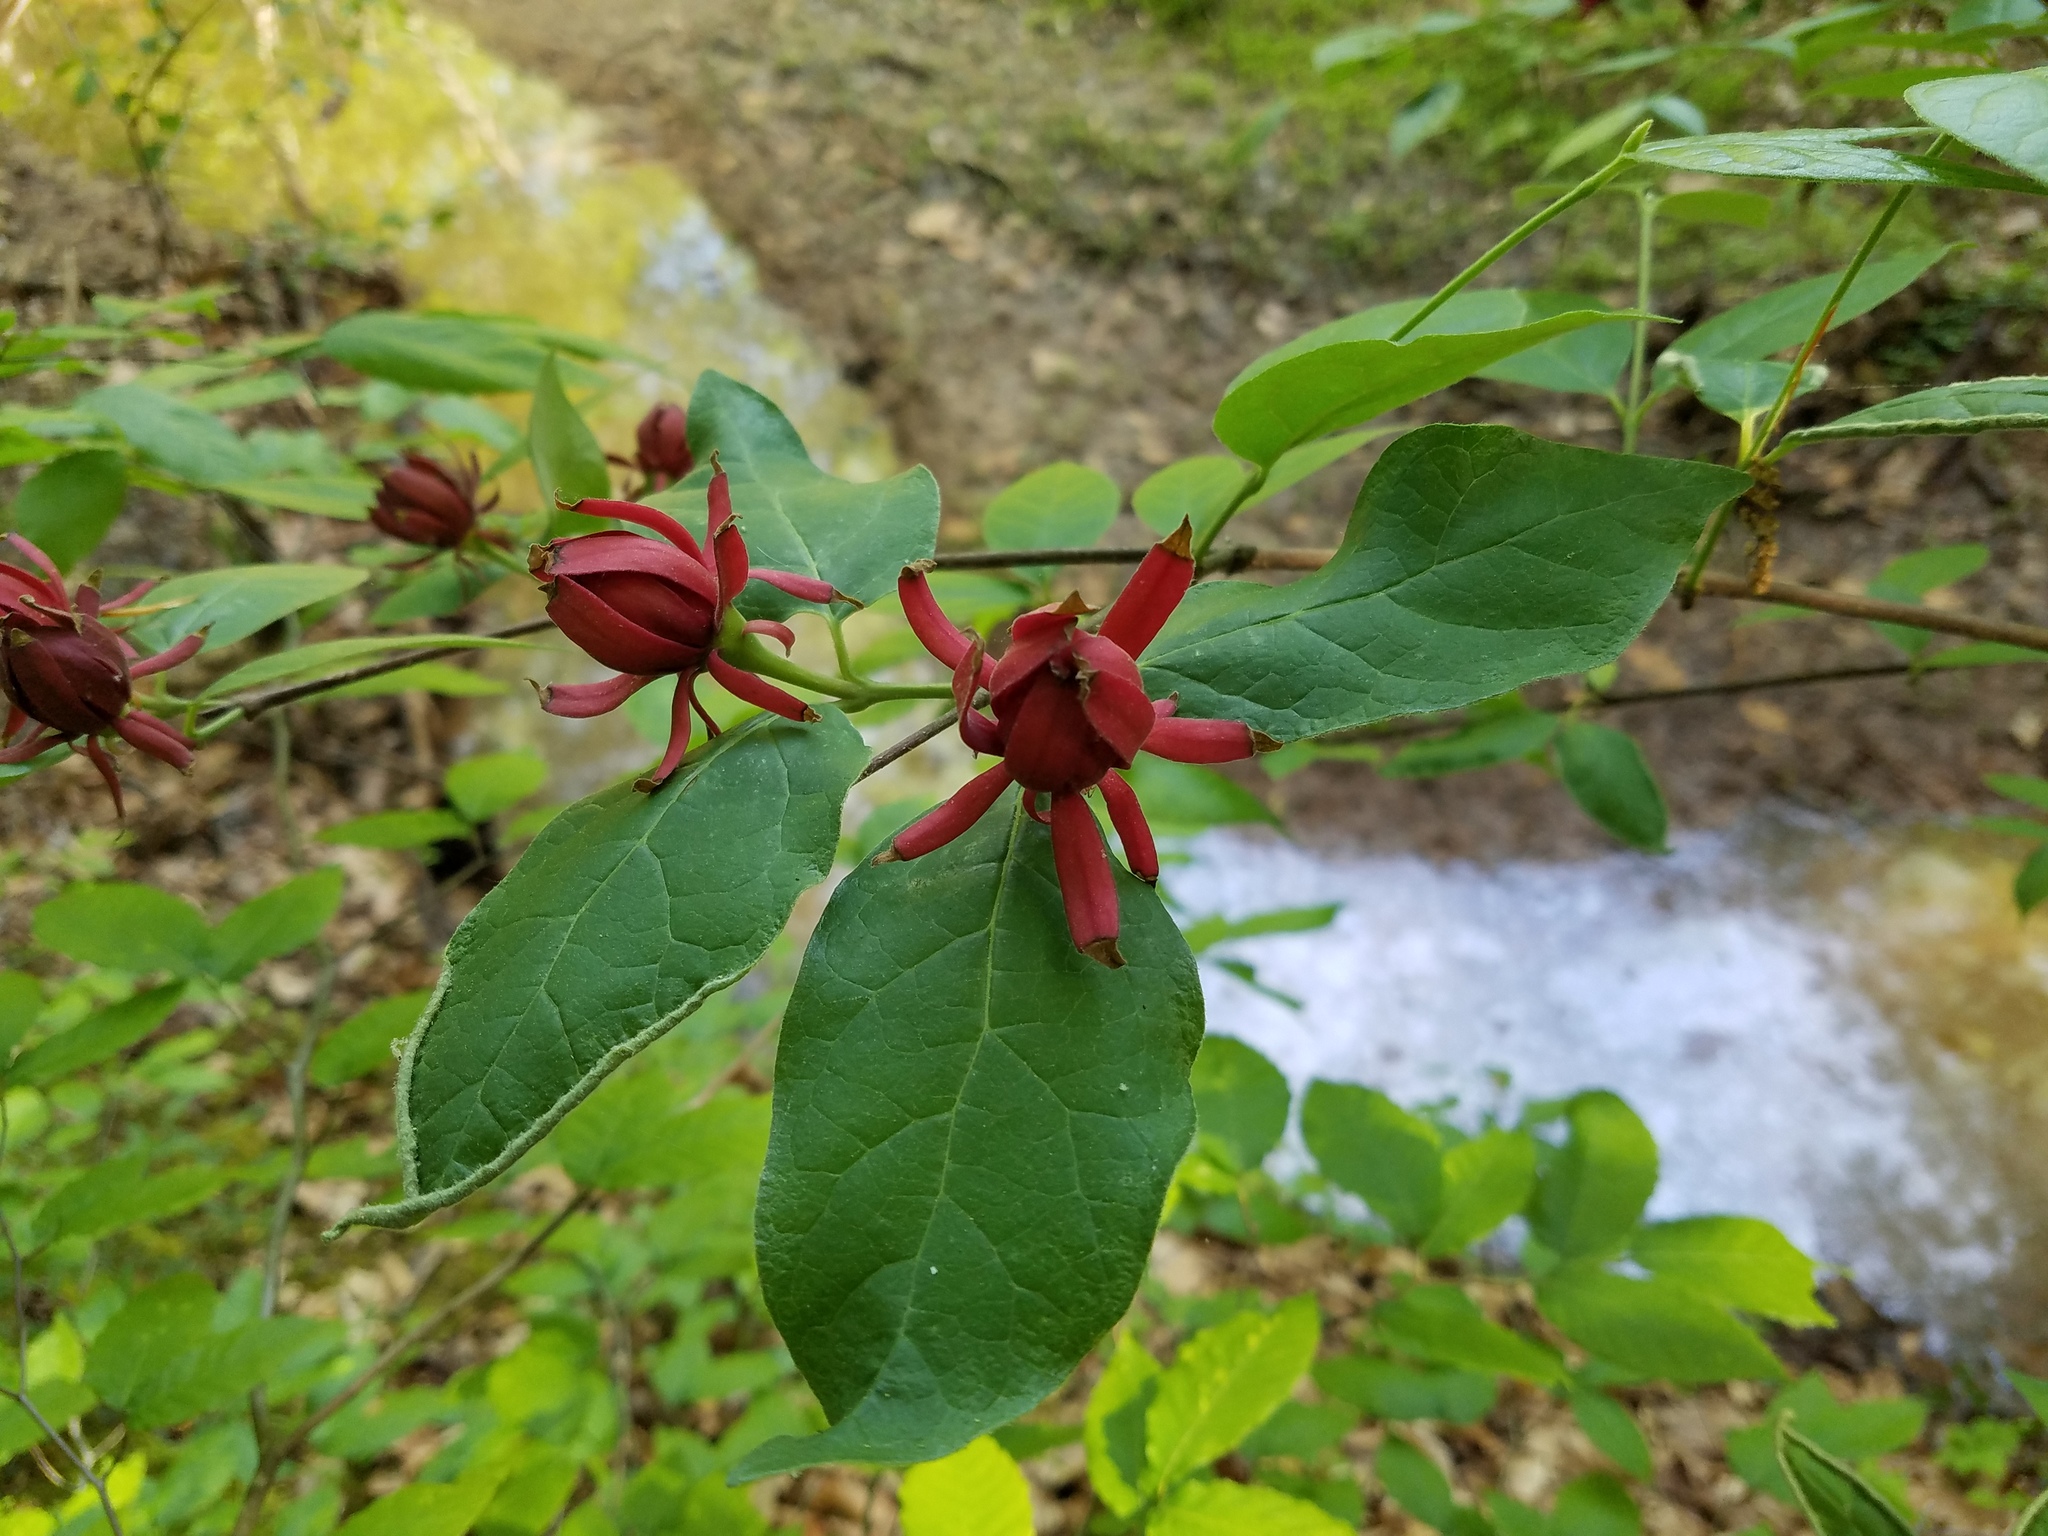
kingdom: Plantae
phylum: Tracheophyta
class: Magnoliopsida
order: Laurales
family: Calycanthaceae
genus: Calycanthus
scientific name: Calycanthus floridus
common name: Carolina-allspice
